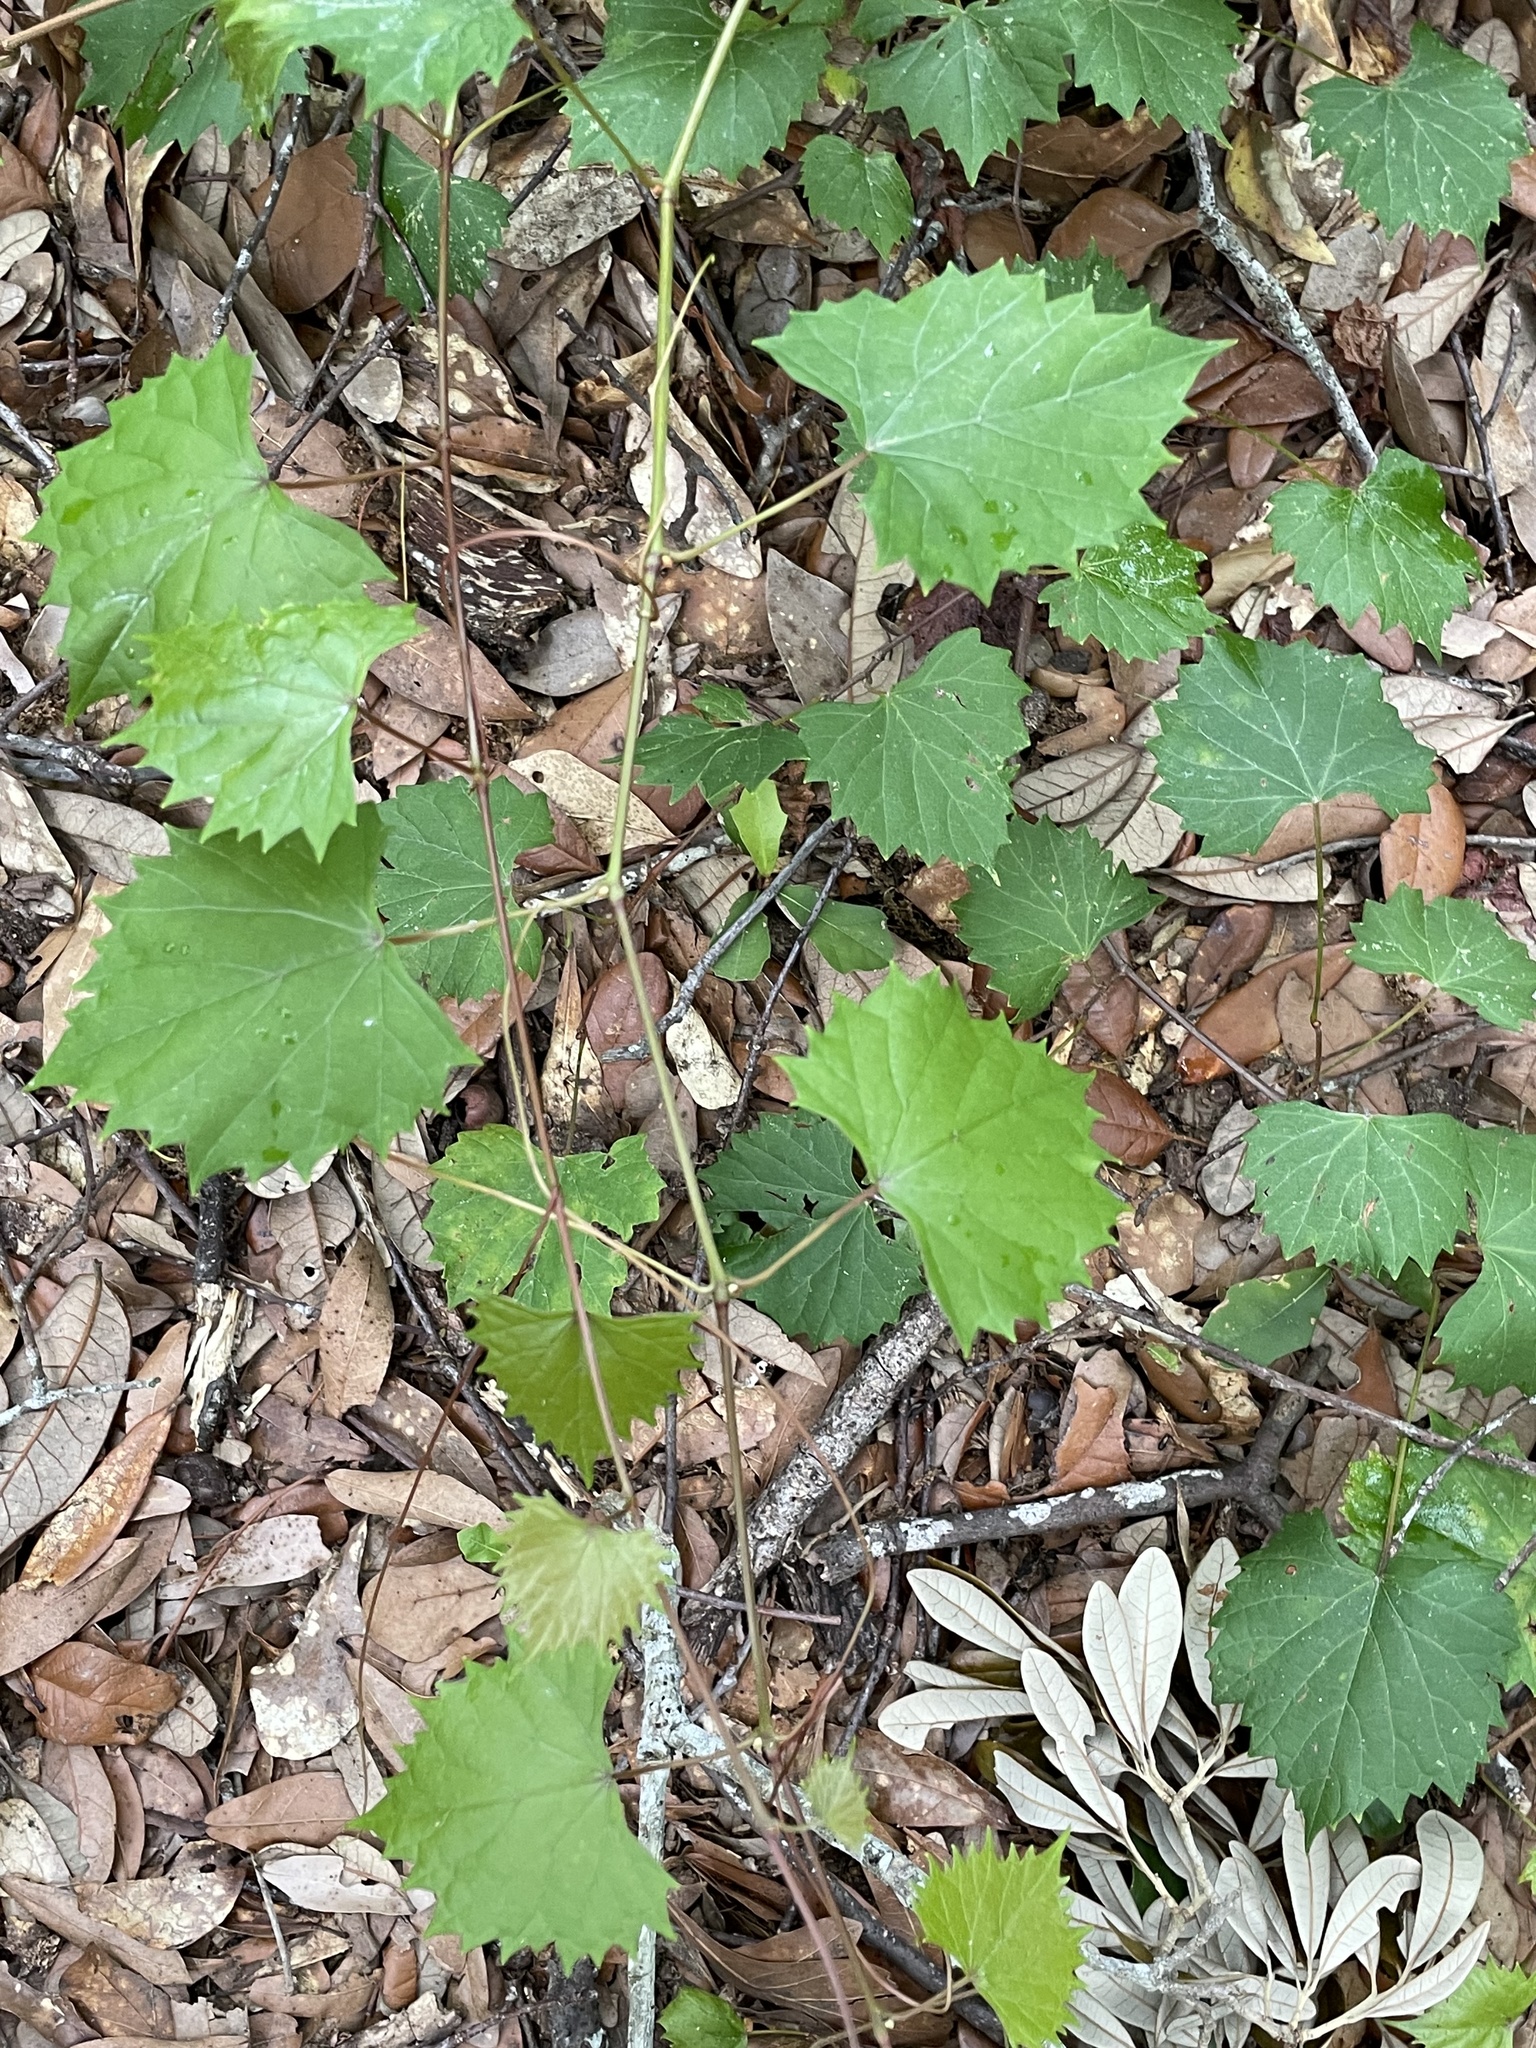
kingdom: Plantae
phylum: Tracheophyta
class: Magnoliopsida
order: Vitales
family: Vitaceae
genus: Vitis
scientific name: Vitis rotundifolia
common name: Muscadine grape
